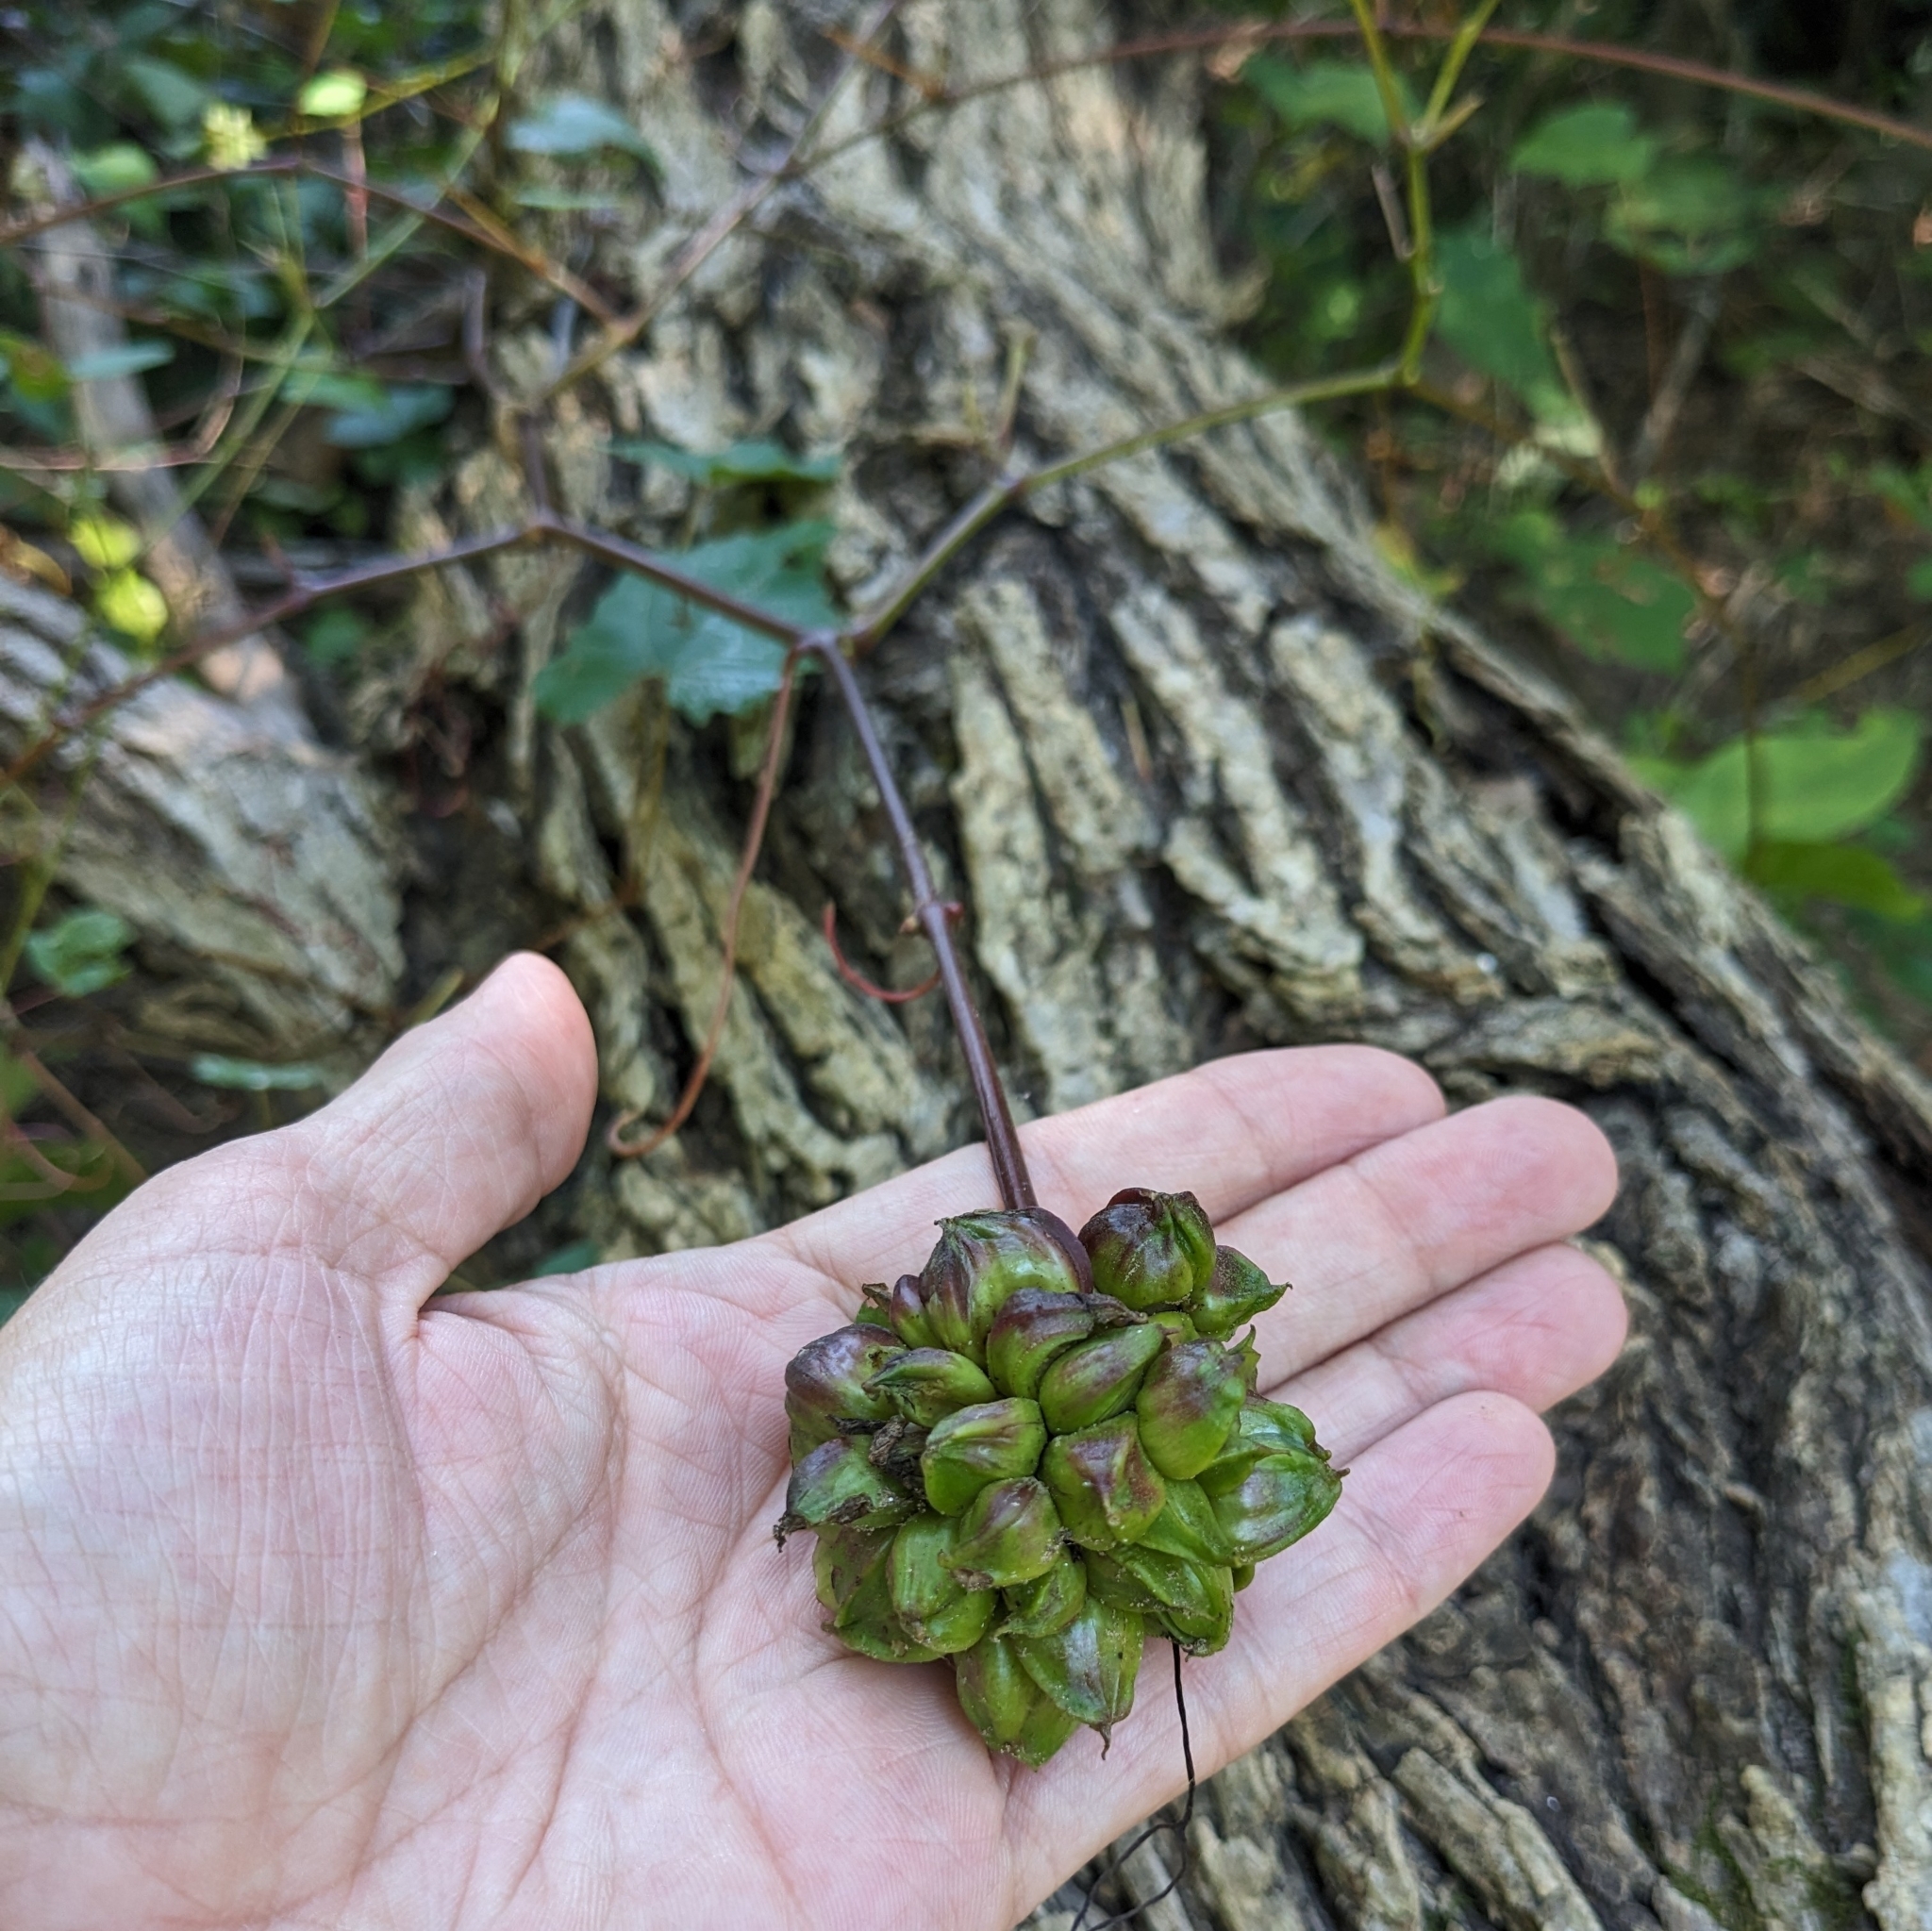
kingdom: Animalia
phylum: Arthropoda
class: Insecta
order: Diptera
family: Cecidomyiidae
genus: Ampelomyia
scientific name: Ampelomyia vitiscoryloides
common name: Grape filbert gall
